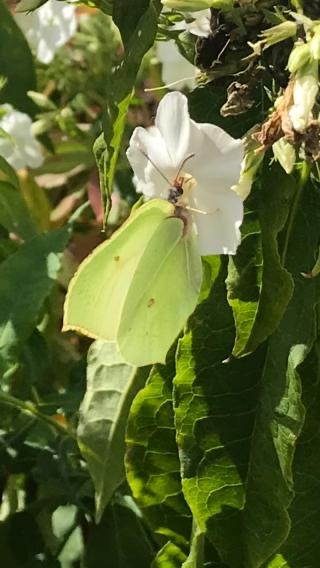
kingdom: Animalia
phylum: Arthropoda
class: Insecta
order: Lepidoptera
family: Pieridae
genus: Gonepteryx
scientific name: Gonepteryx rhamni
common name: Brimstone
